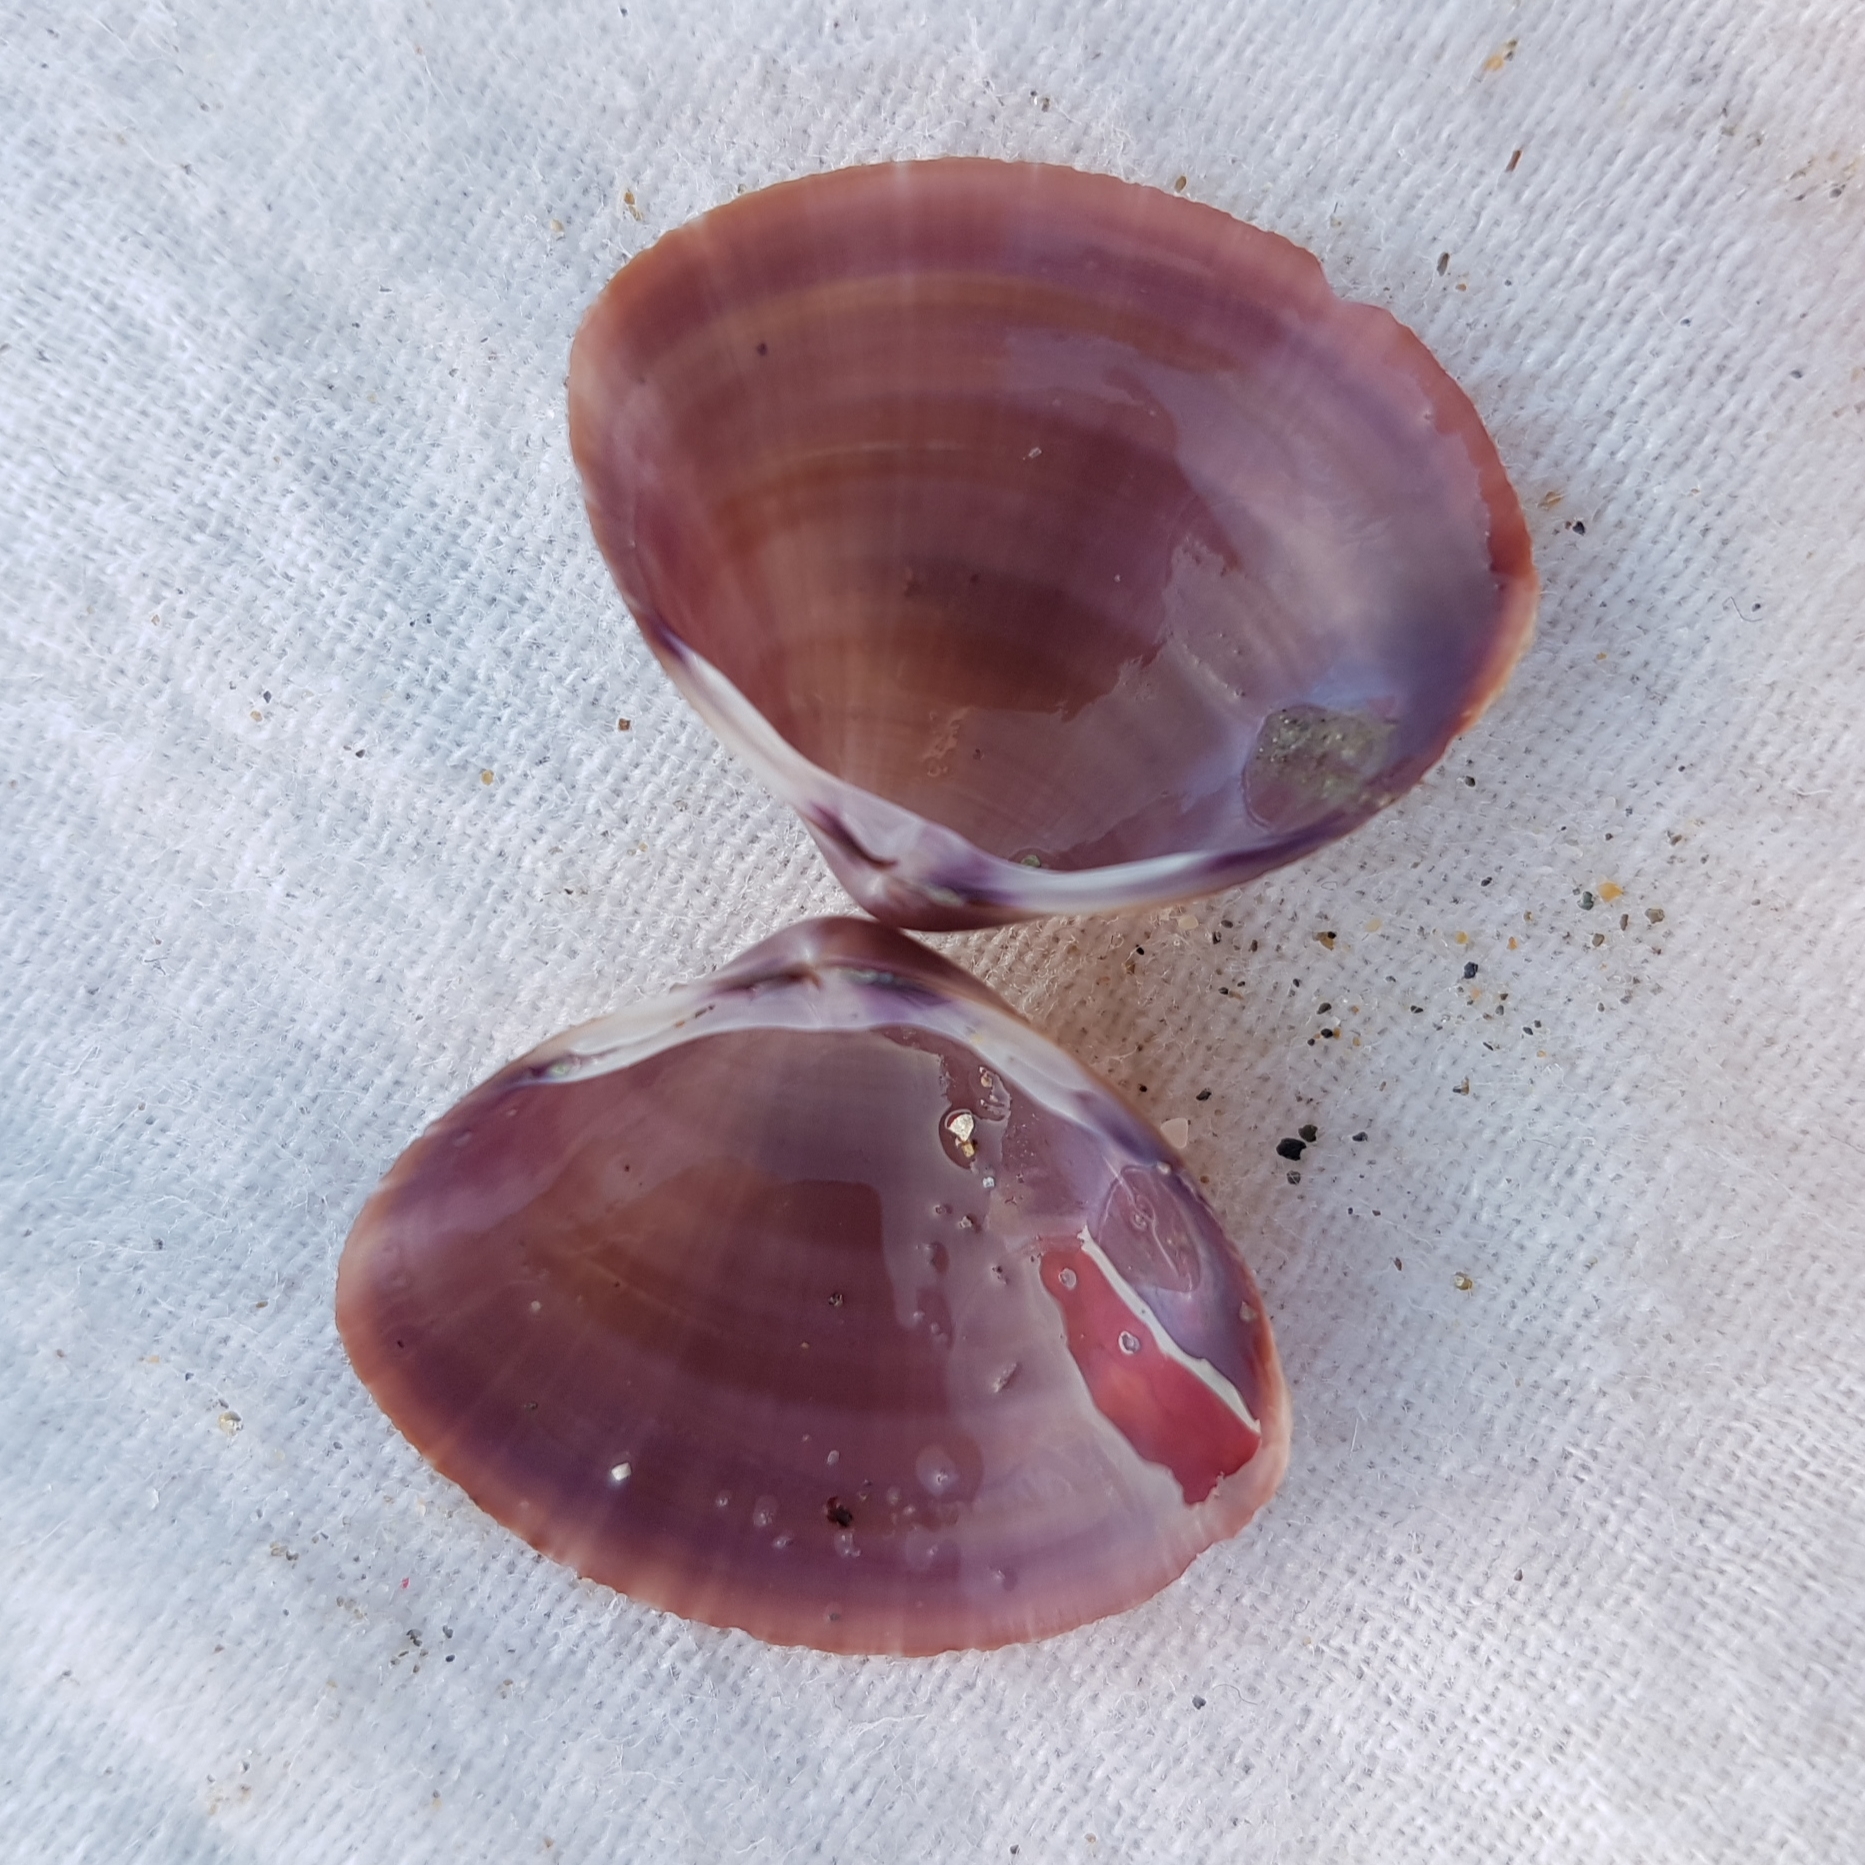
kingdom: Animalia
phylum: Mollusca
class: Bivalvia
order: Venerida
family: Mactridae
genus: Mactra
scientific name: Mactra stultorum
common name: Rayed trough shell
